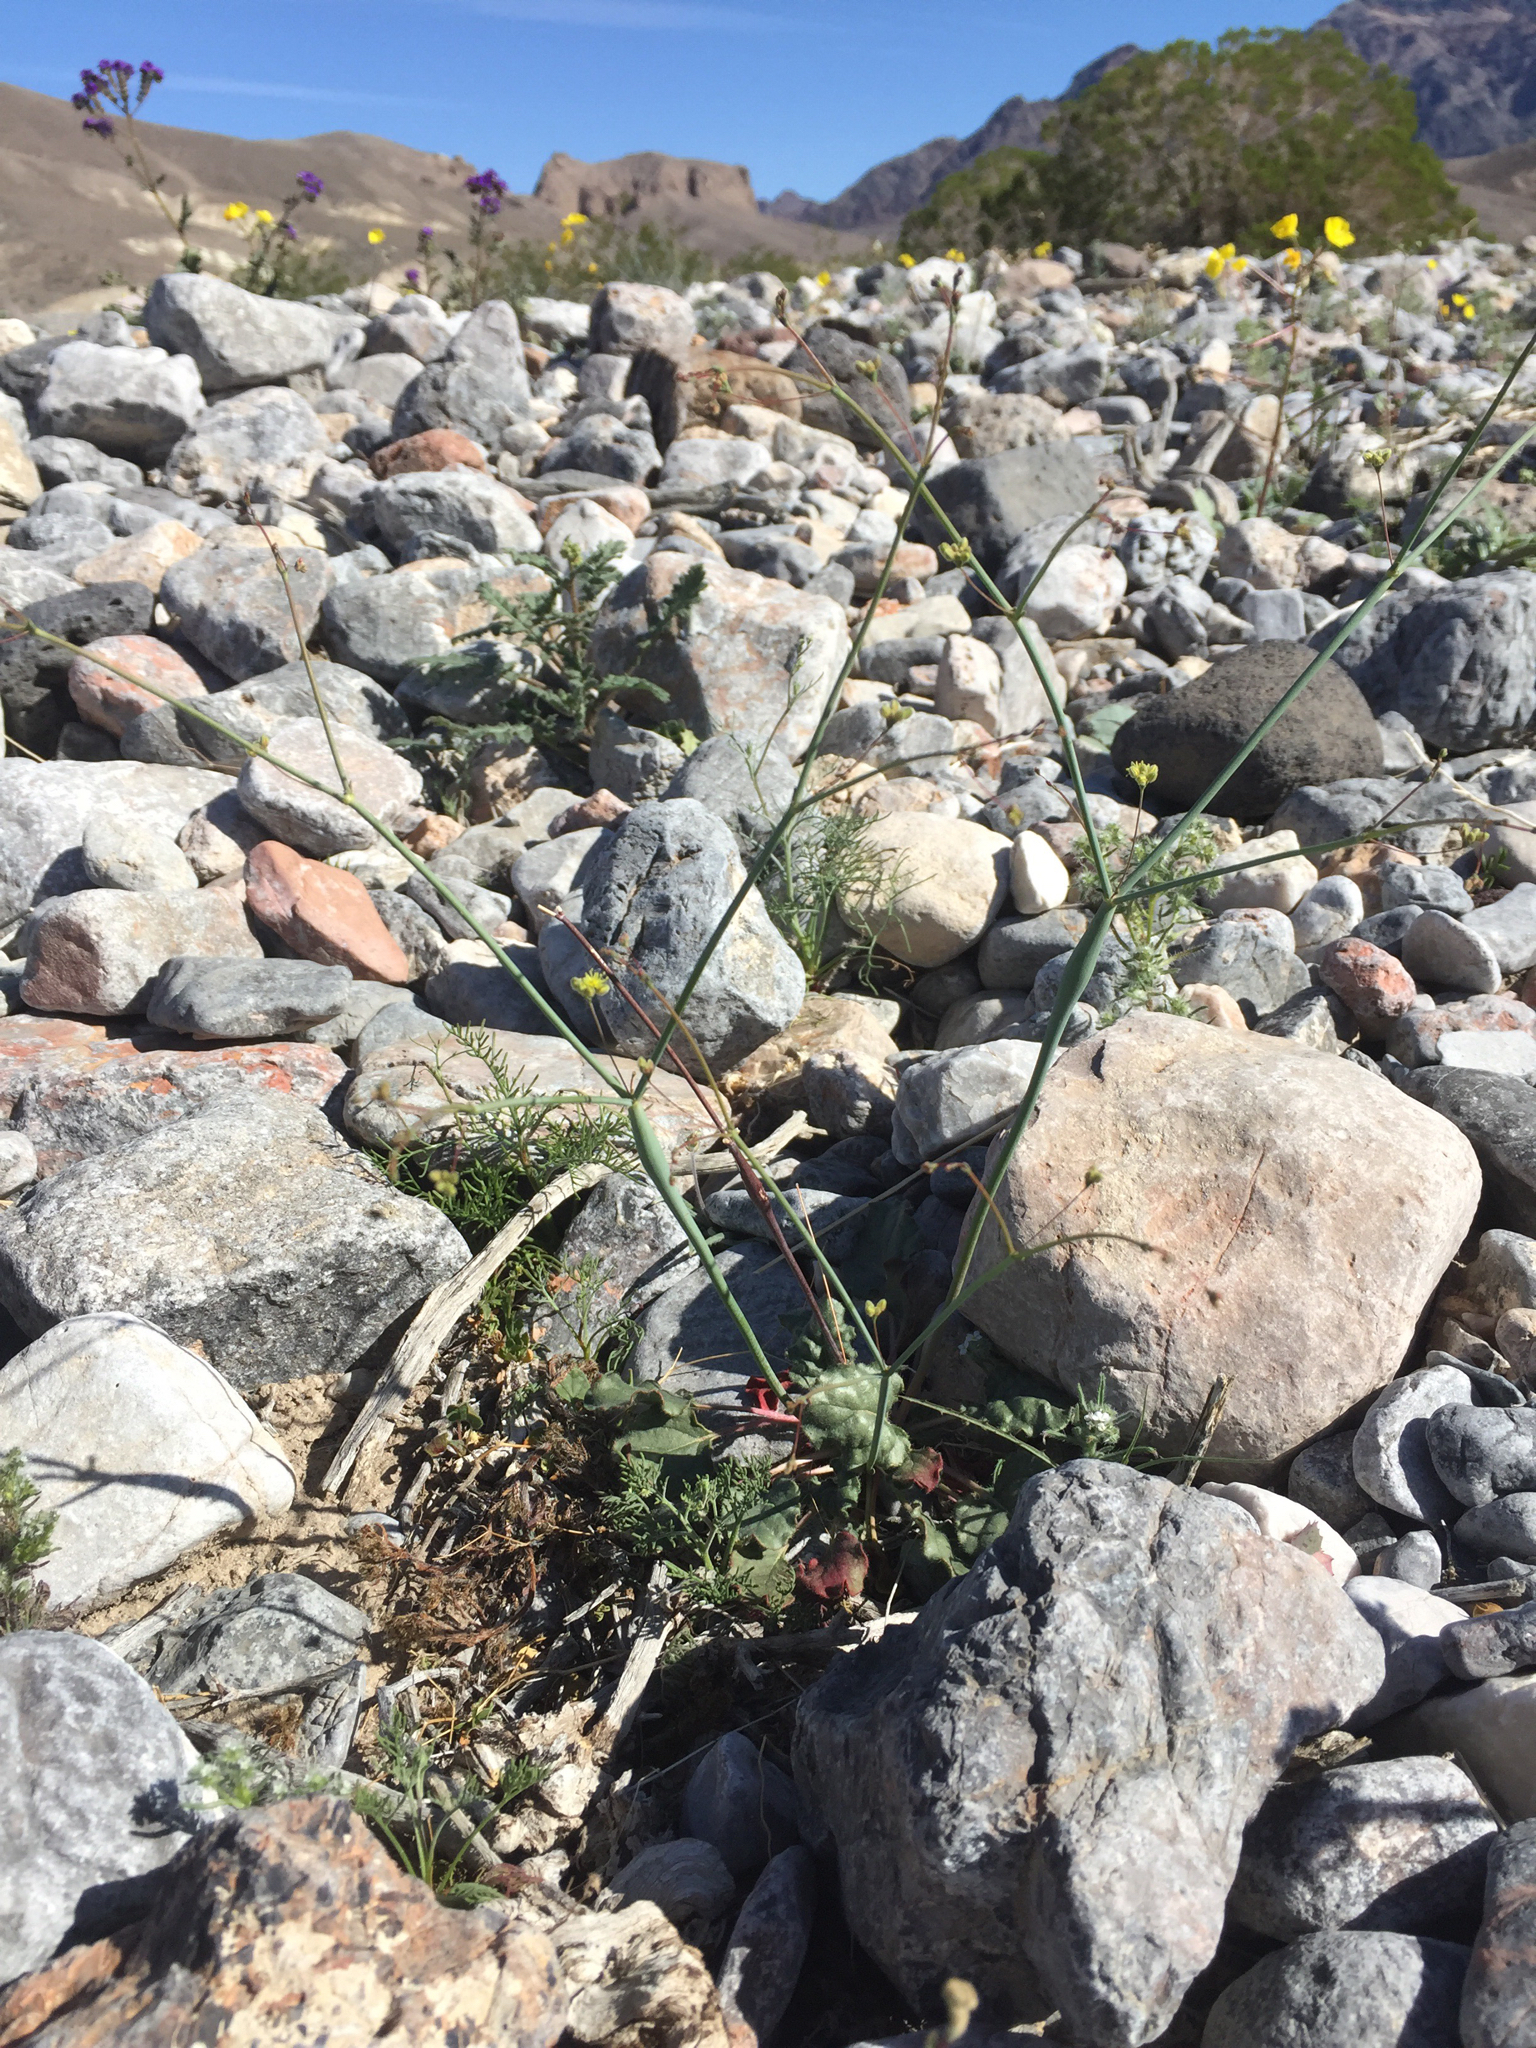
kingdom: Plantae
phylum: Tracheophyta
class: Magnoliopsida
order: Caryophyllales
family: Polygonaceae
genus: Eriogonum
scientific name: Eriogonum inflatum
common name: Desert trumpet
